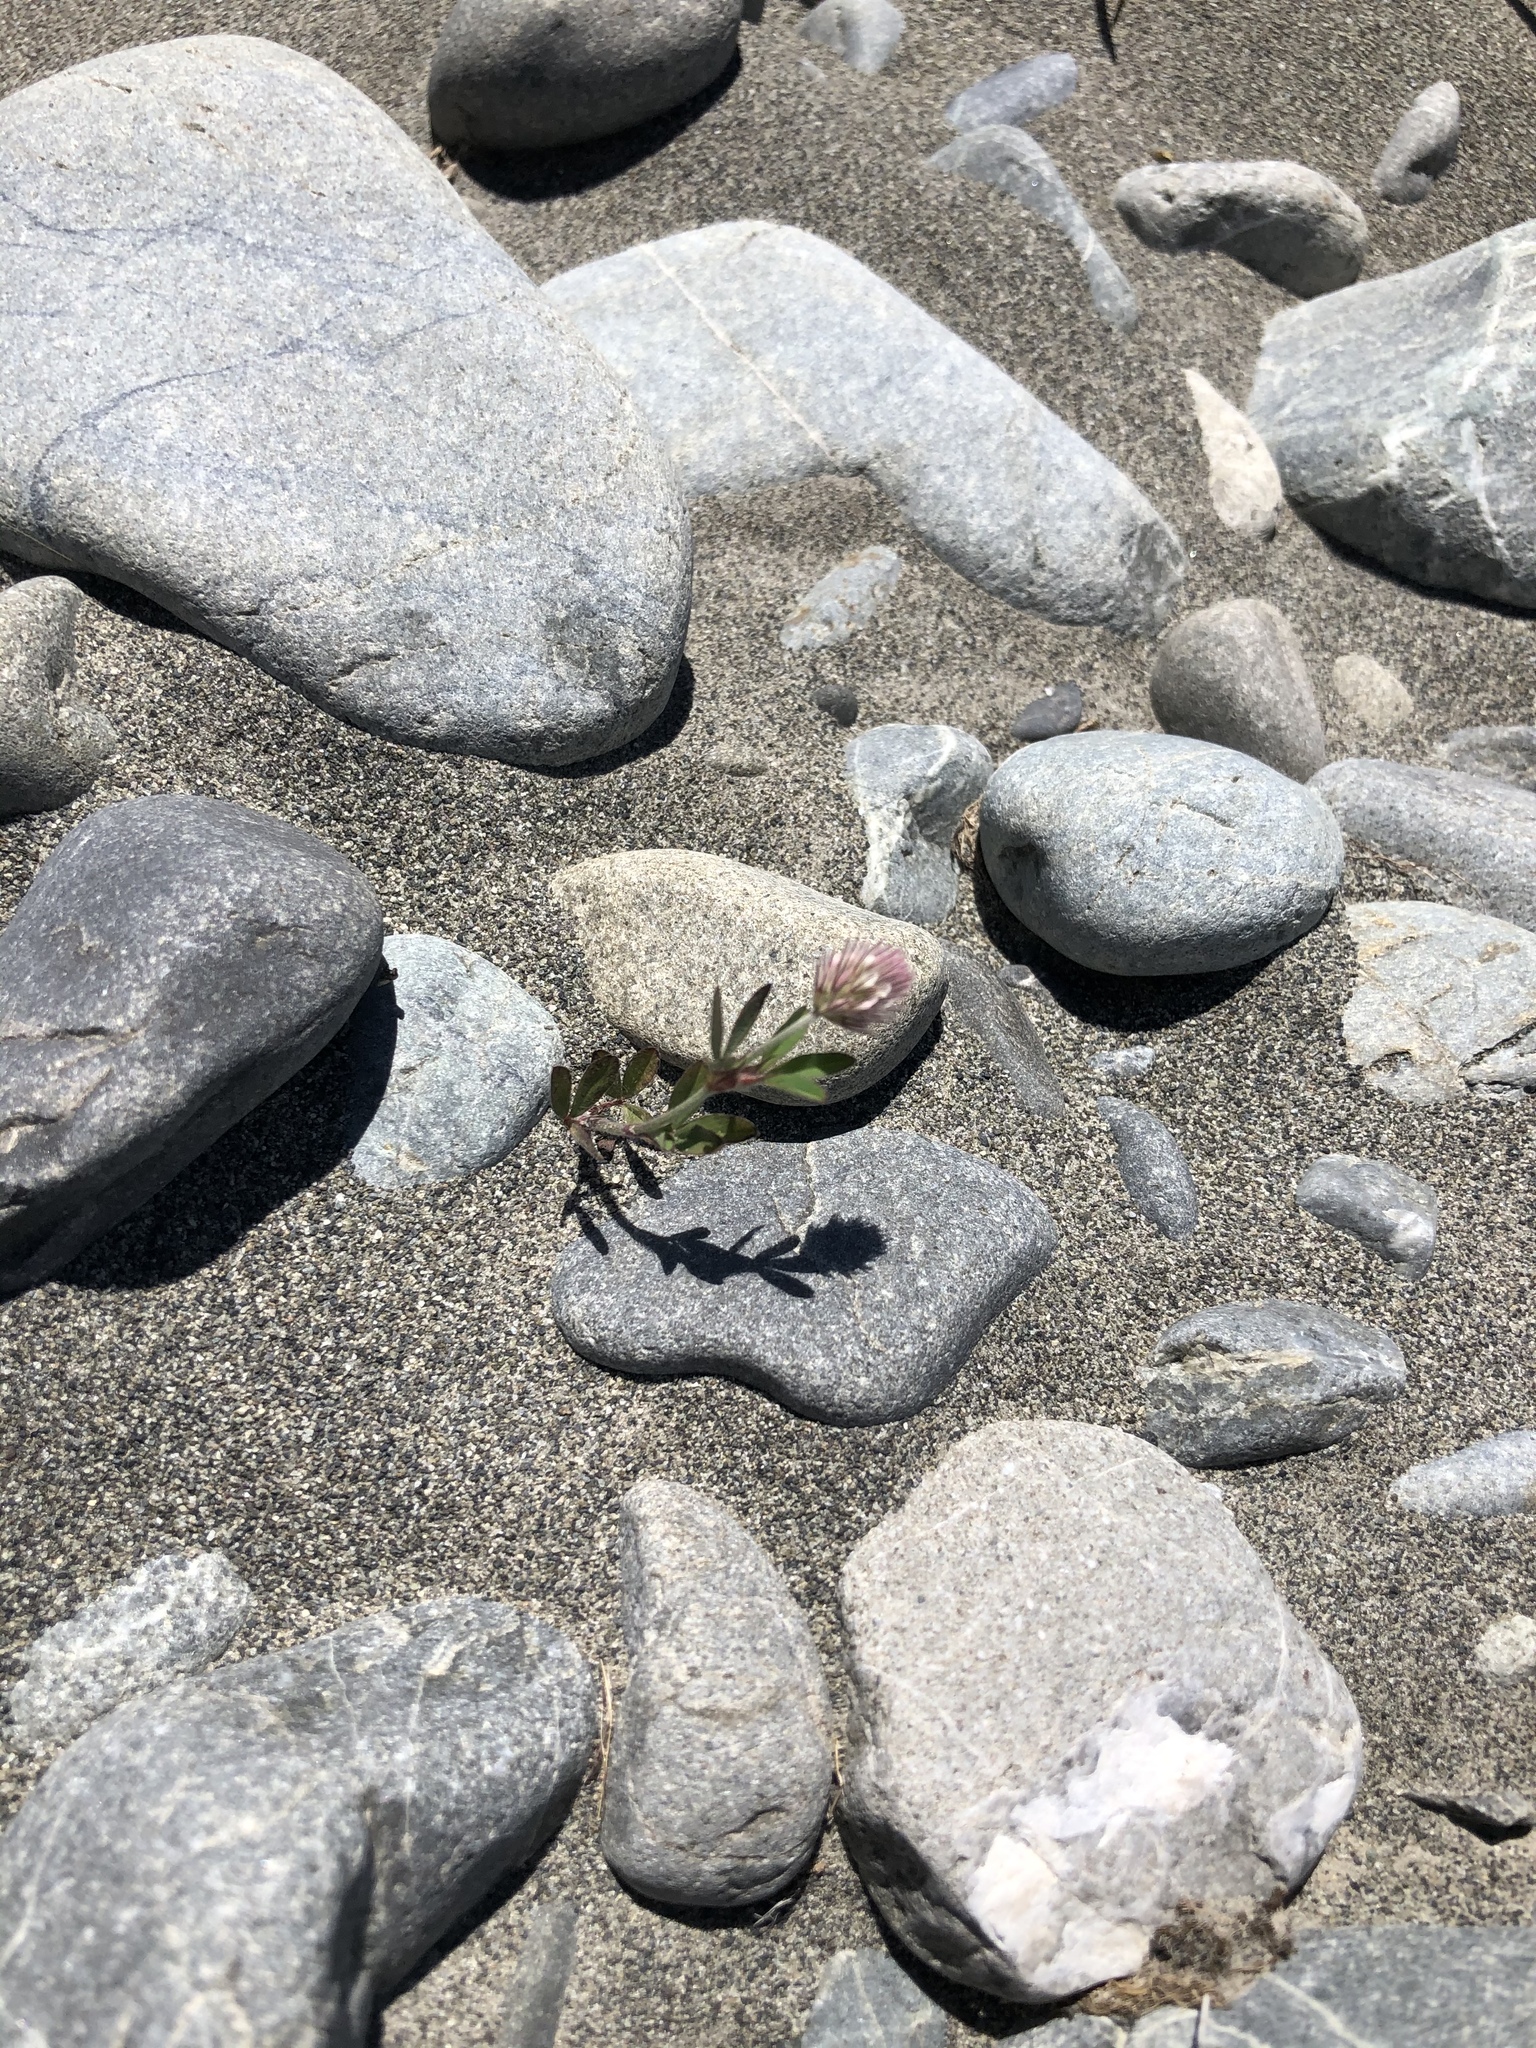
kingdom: Plantae
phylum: Tracheophyta
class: Magnoliopsida
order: Fabales
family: Fabaceae
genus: Trifolium
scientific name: Trifolium arvense
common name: Hare's-foot clover
